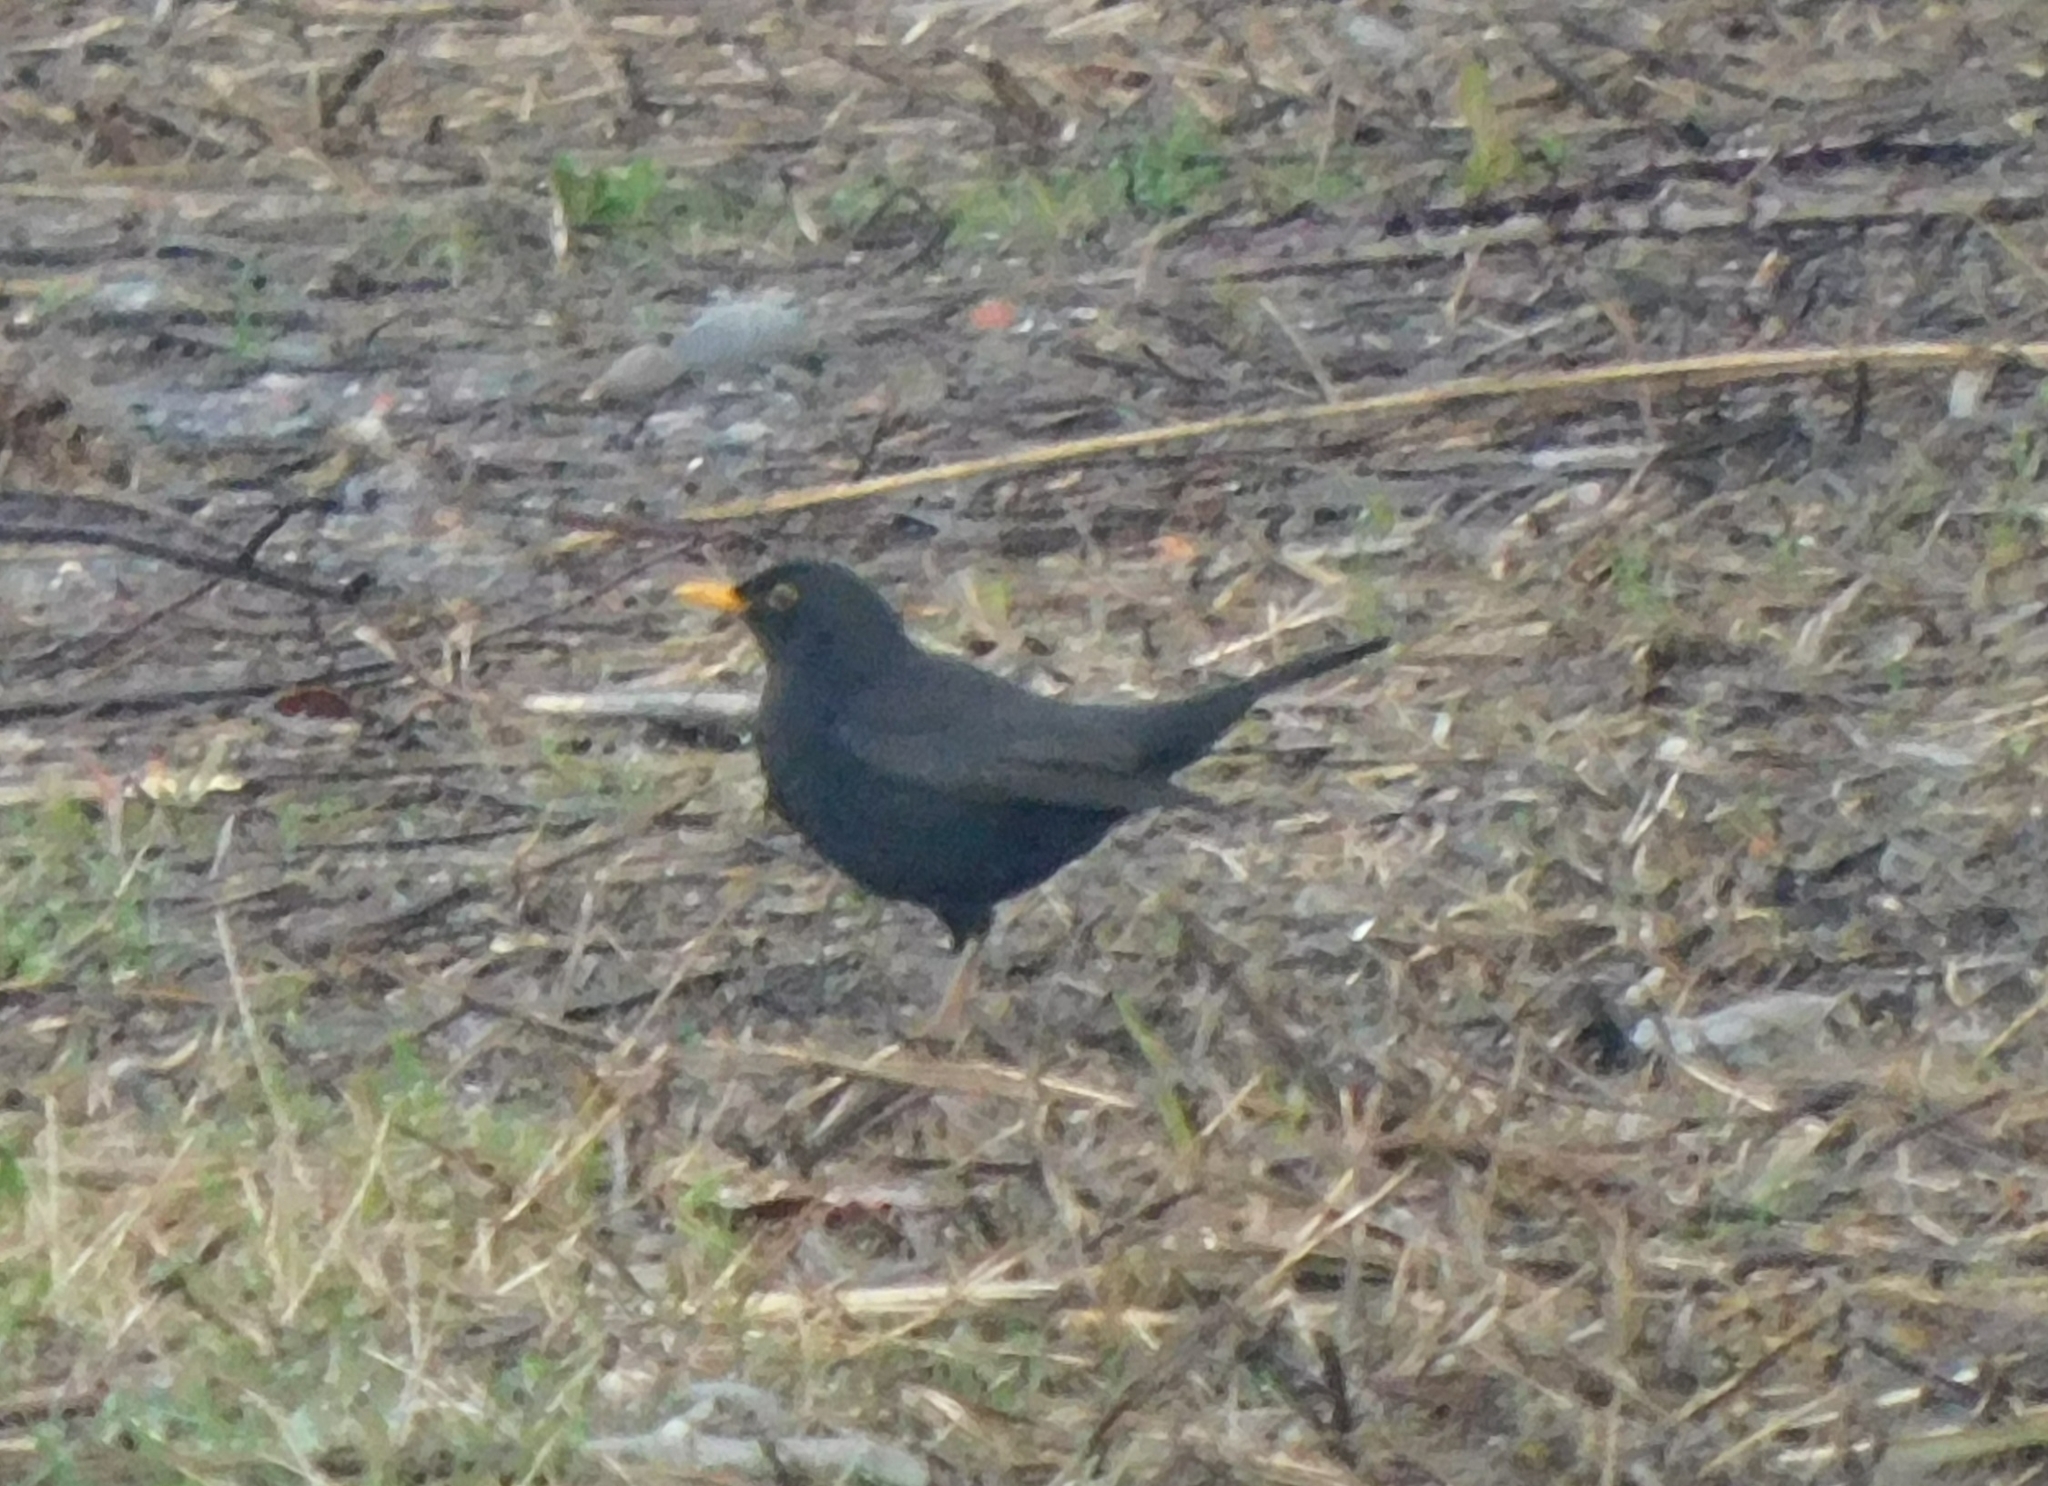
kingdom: Animalia
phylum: Chordata
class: Aves
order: Passeriformes
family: Turdidae
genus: Turdus
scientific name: Turdus merula
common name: Common blackbird
